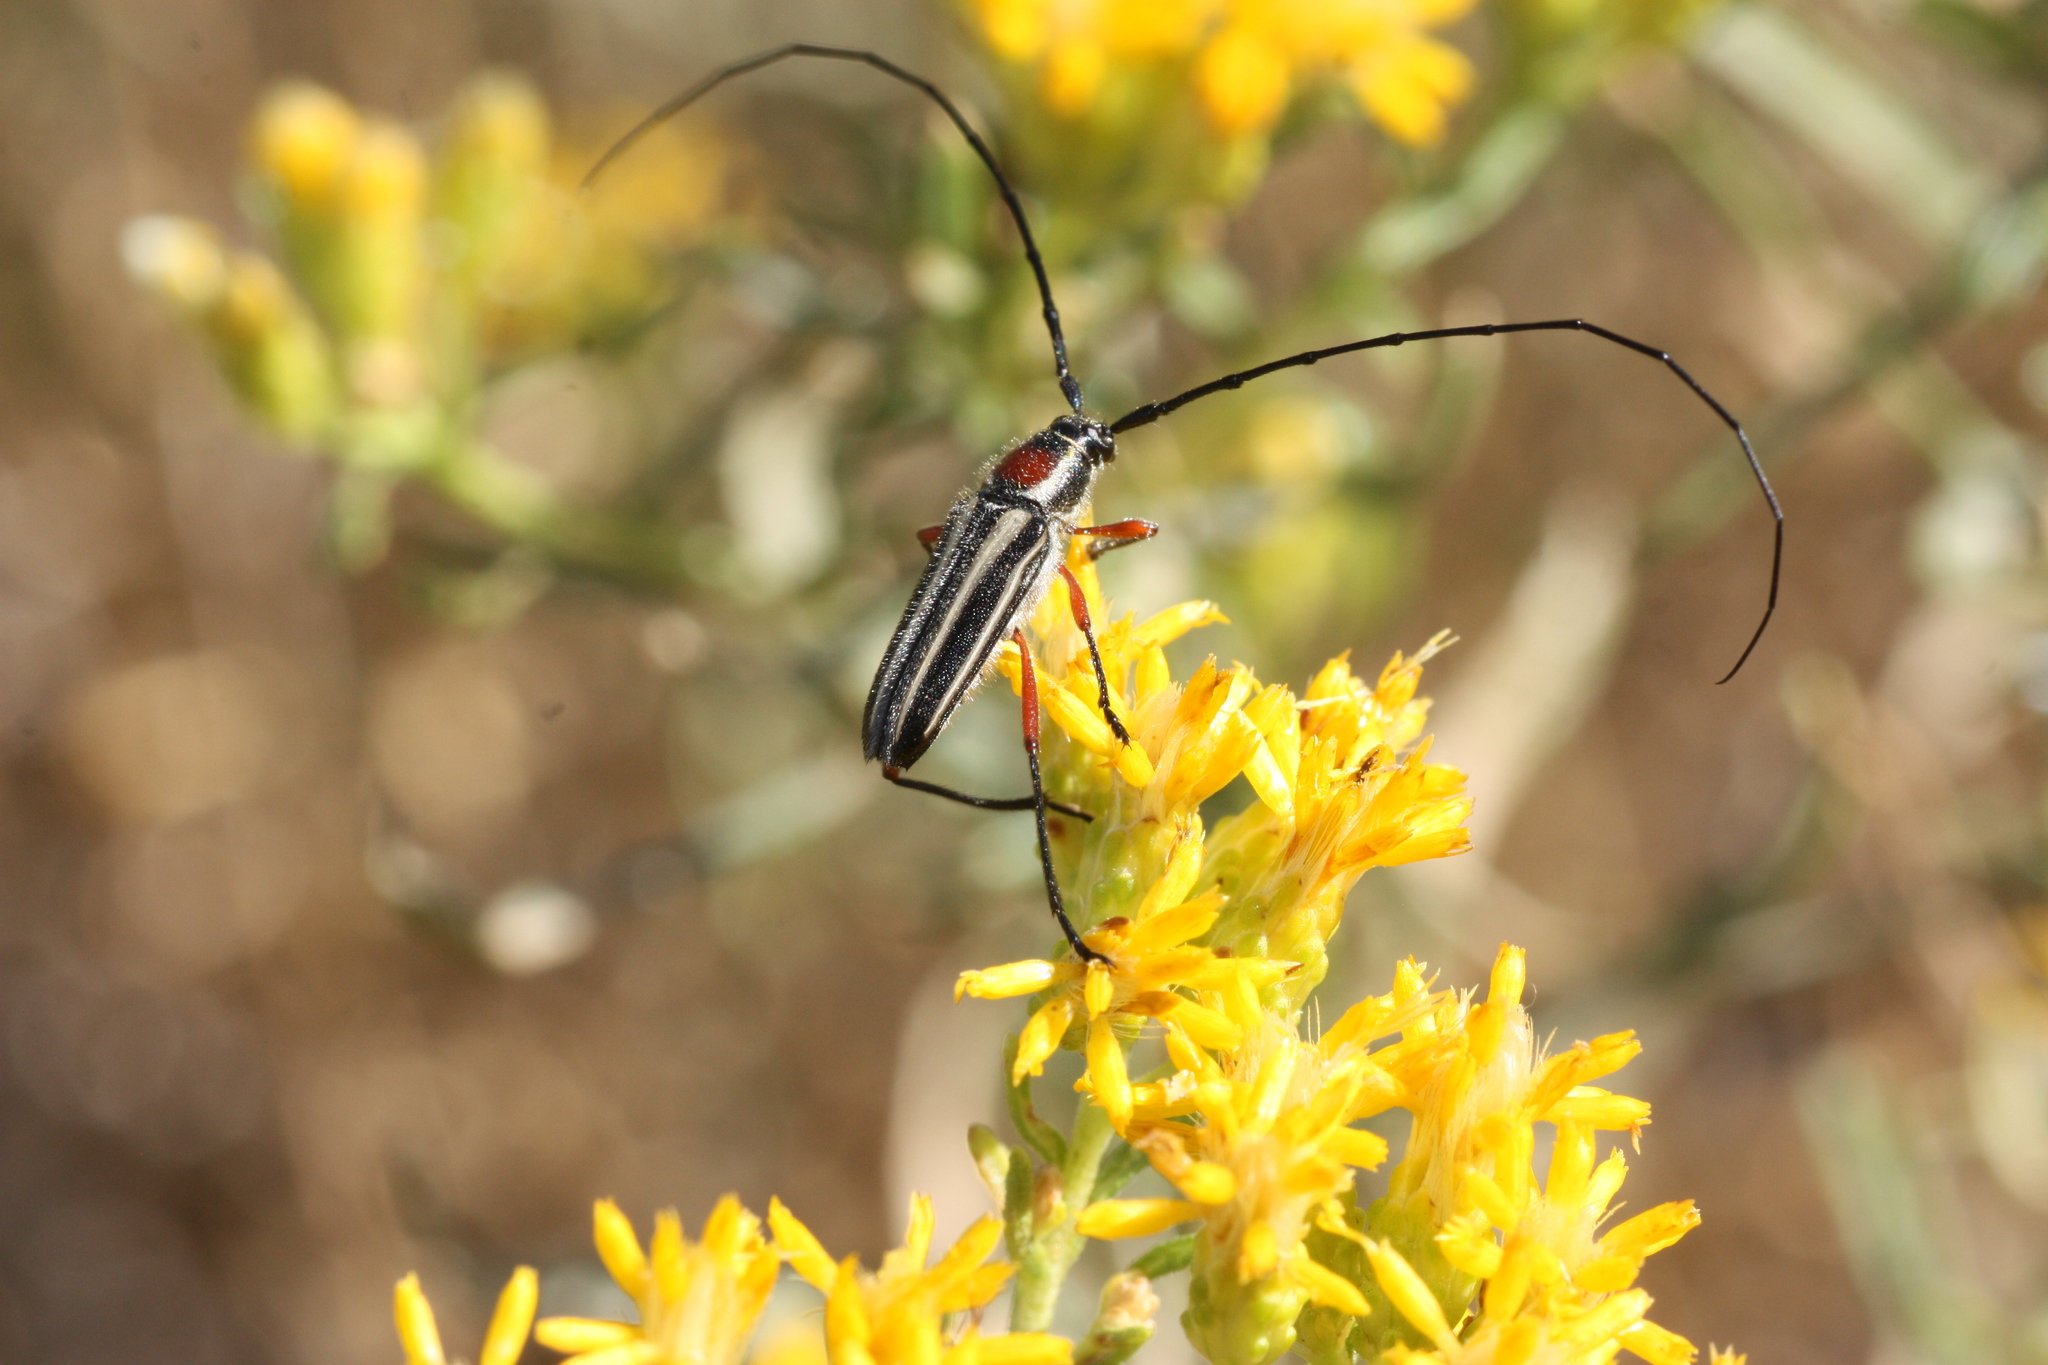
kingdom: Animalia
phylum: Arthropoda
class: Insecta
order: Coleoptera
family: Cerambycidae
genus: Sphaenothecus
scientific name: Sphaenothecus bilineatus
